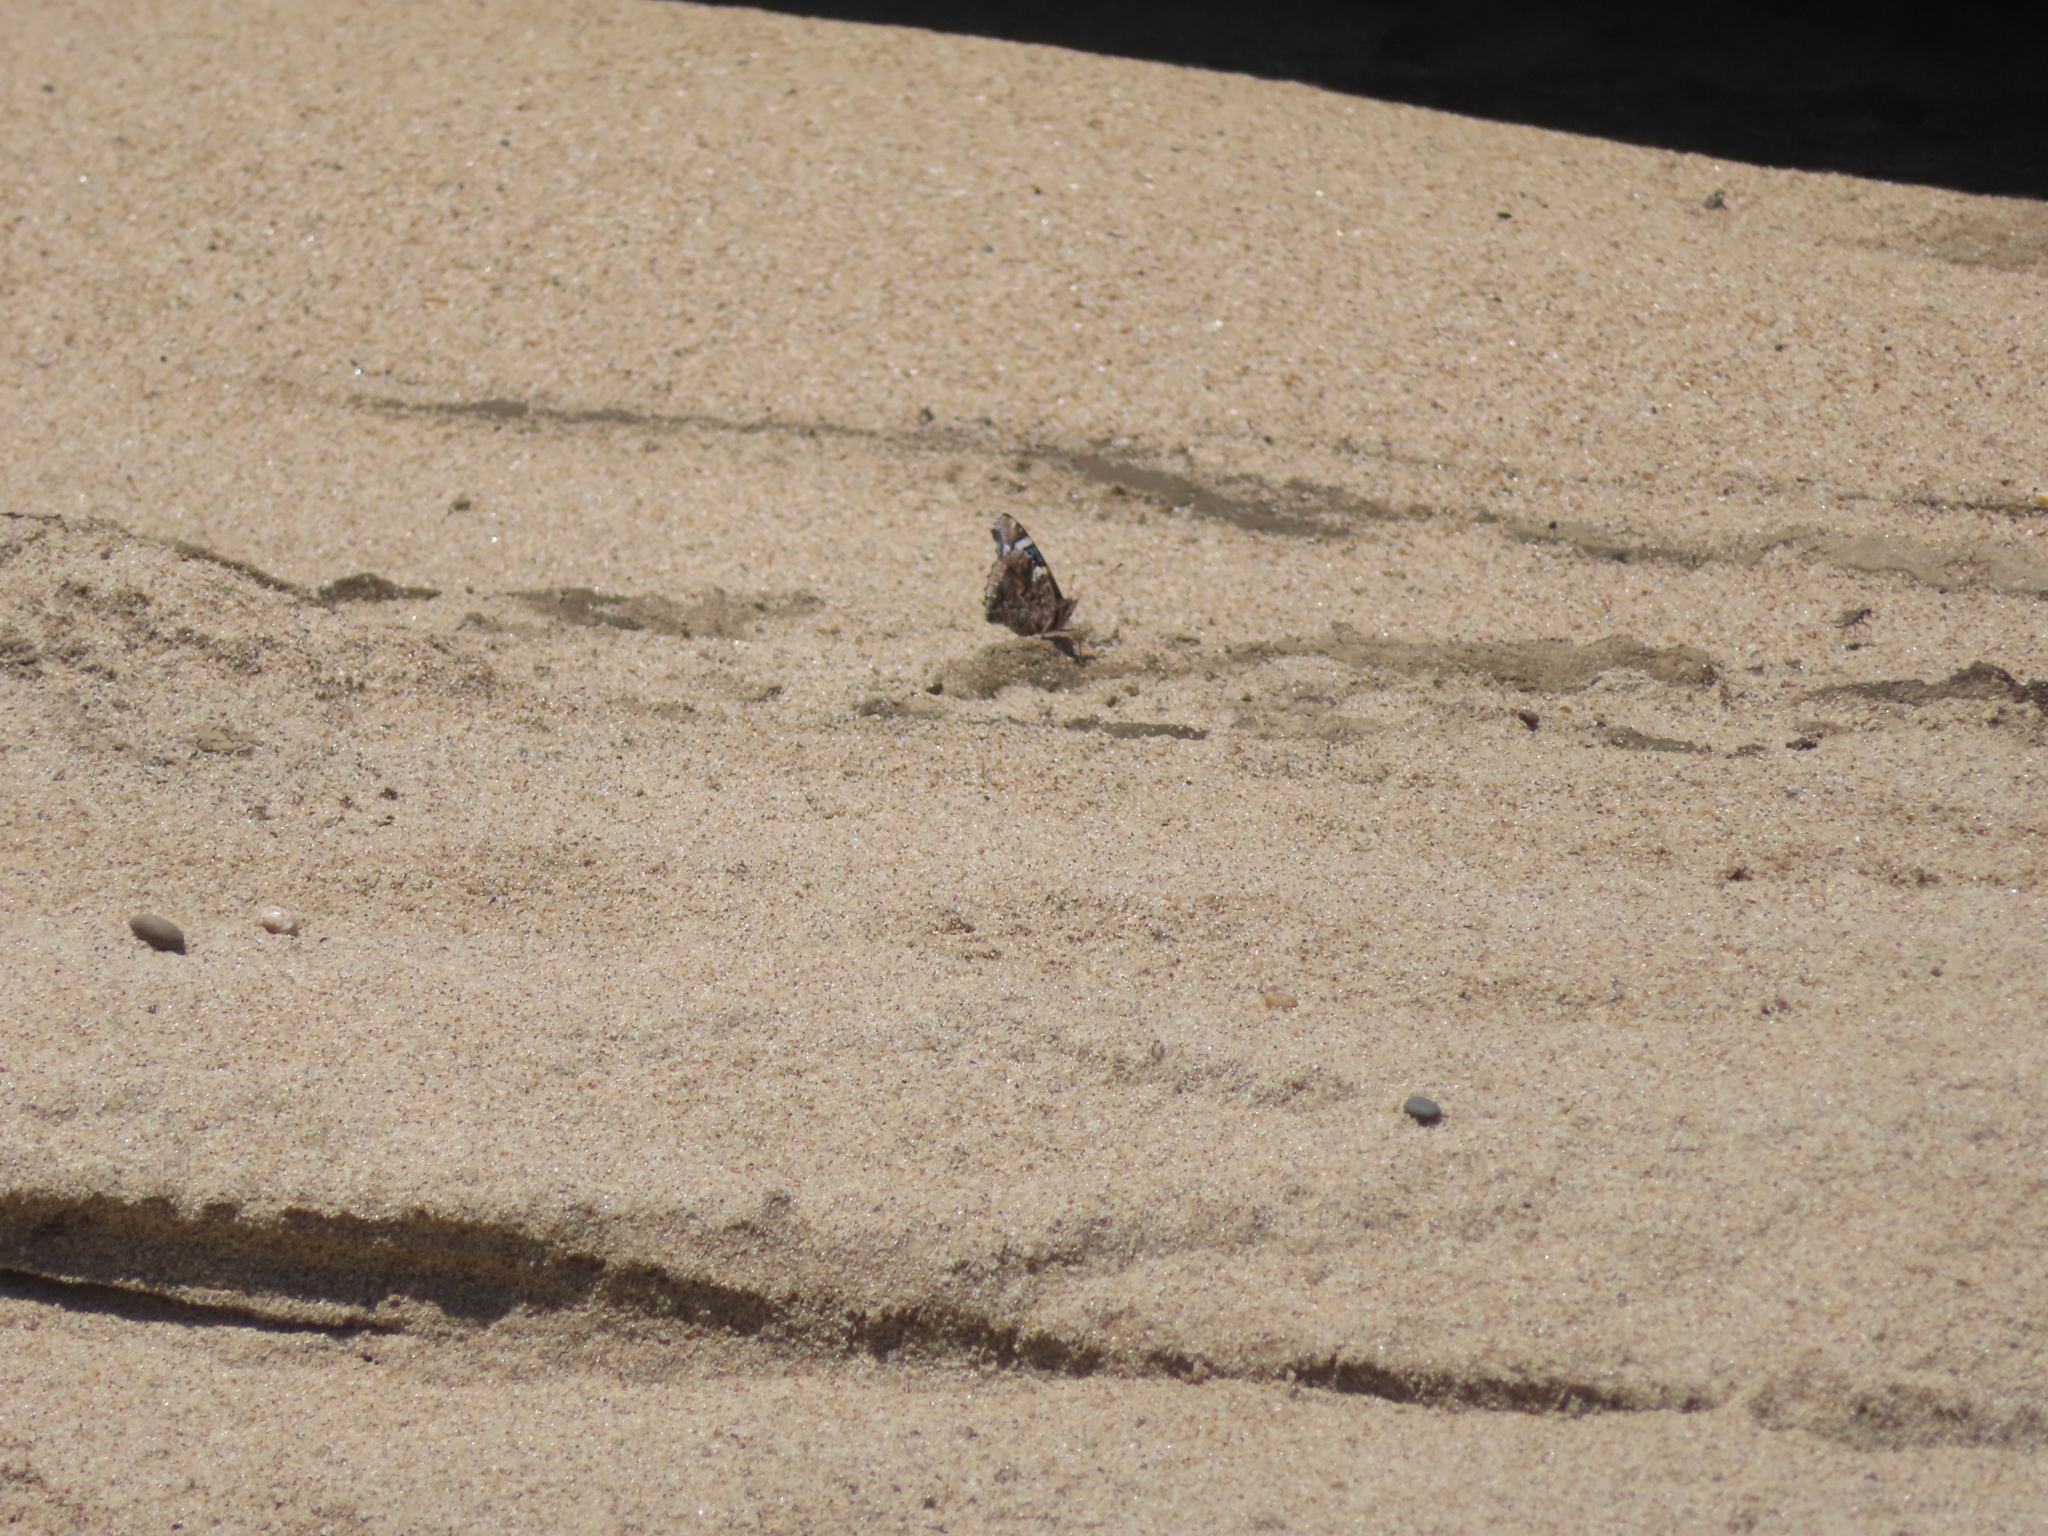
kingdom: Animalia
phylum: Arthropoda
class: Insecta
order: Lepidoptera
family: Nymphalidae
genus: Vanessa
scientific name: Vanessa atalanta
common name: Red admiral
